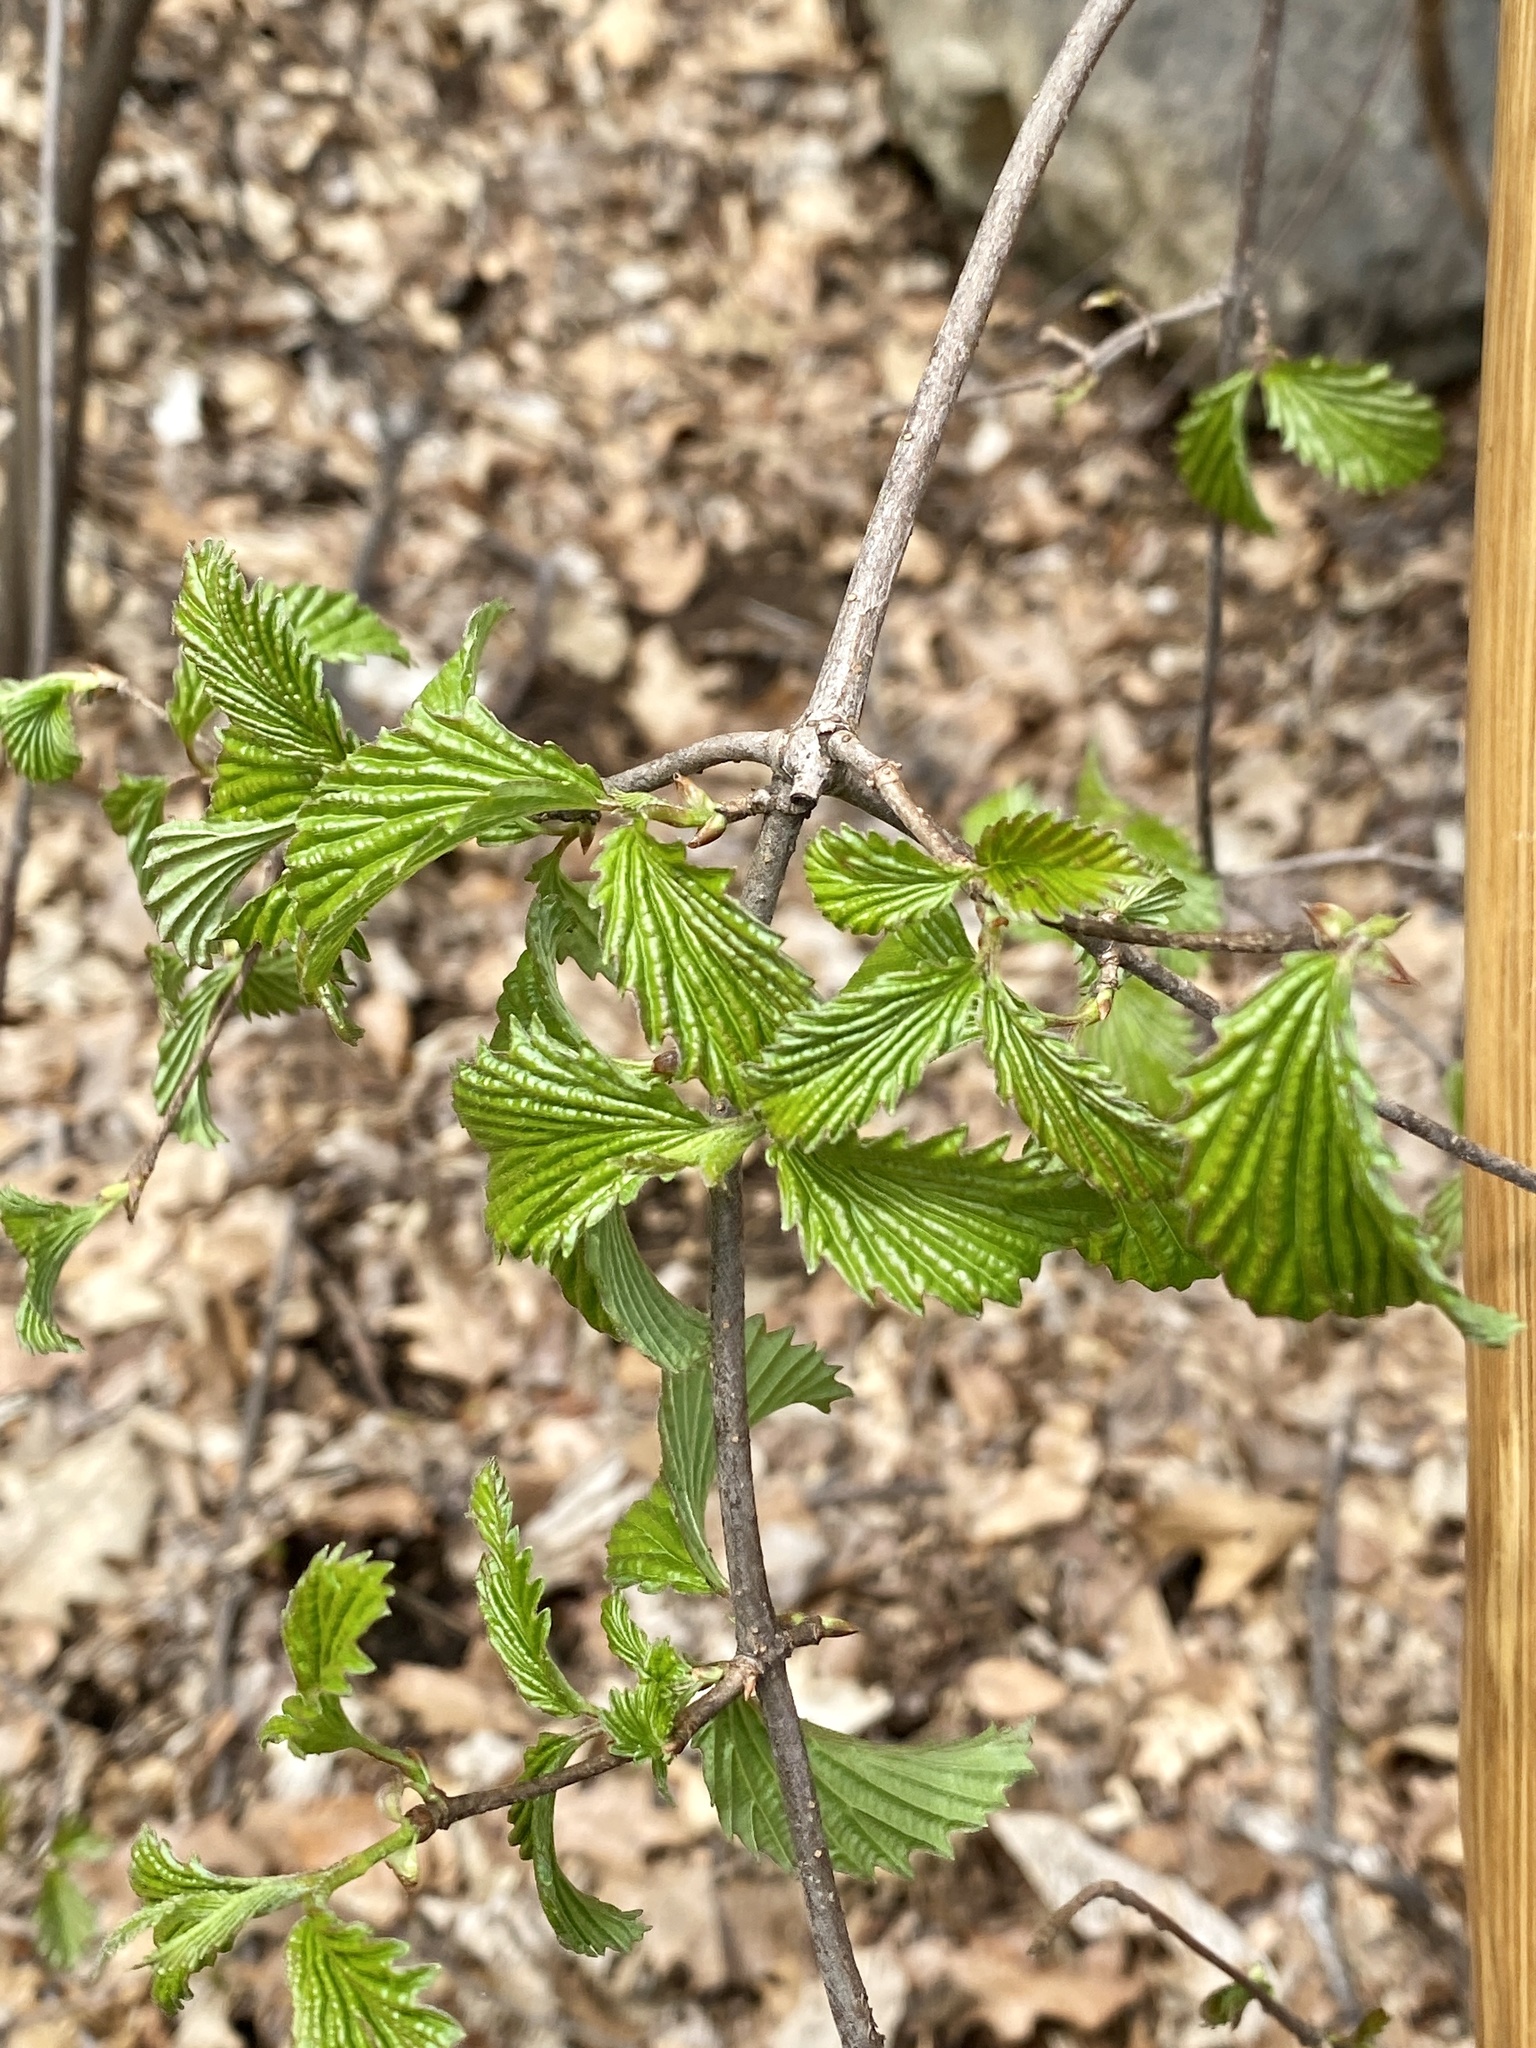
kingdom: Plantae
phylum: Tracheophyta
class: Magnoliopsida
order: Dipsacales
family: Viburnaceae
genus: Viburnum
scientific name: Viburnum dentatum
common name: Arrow-wood
